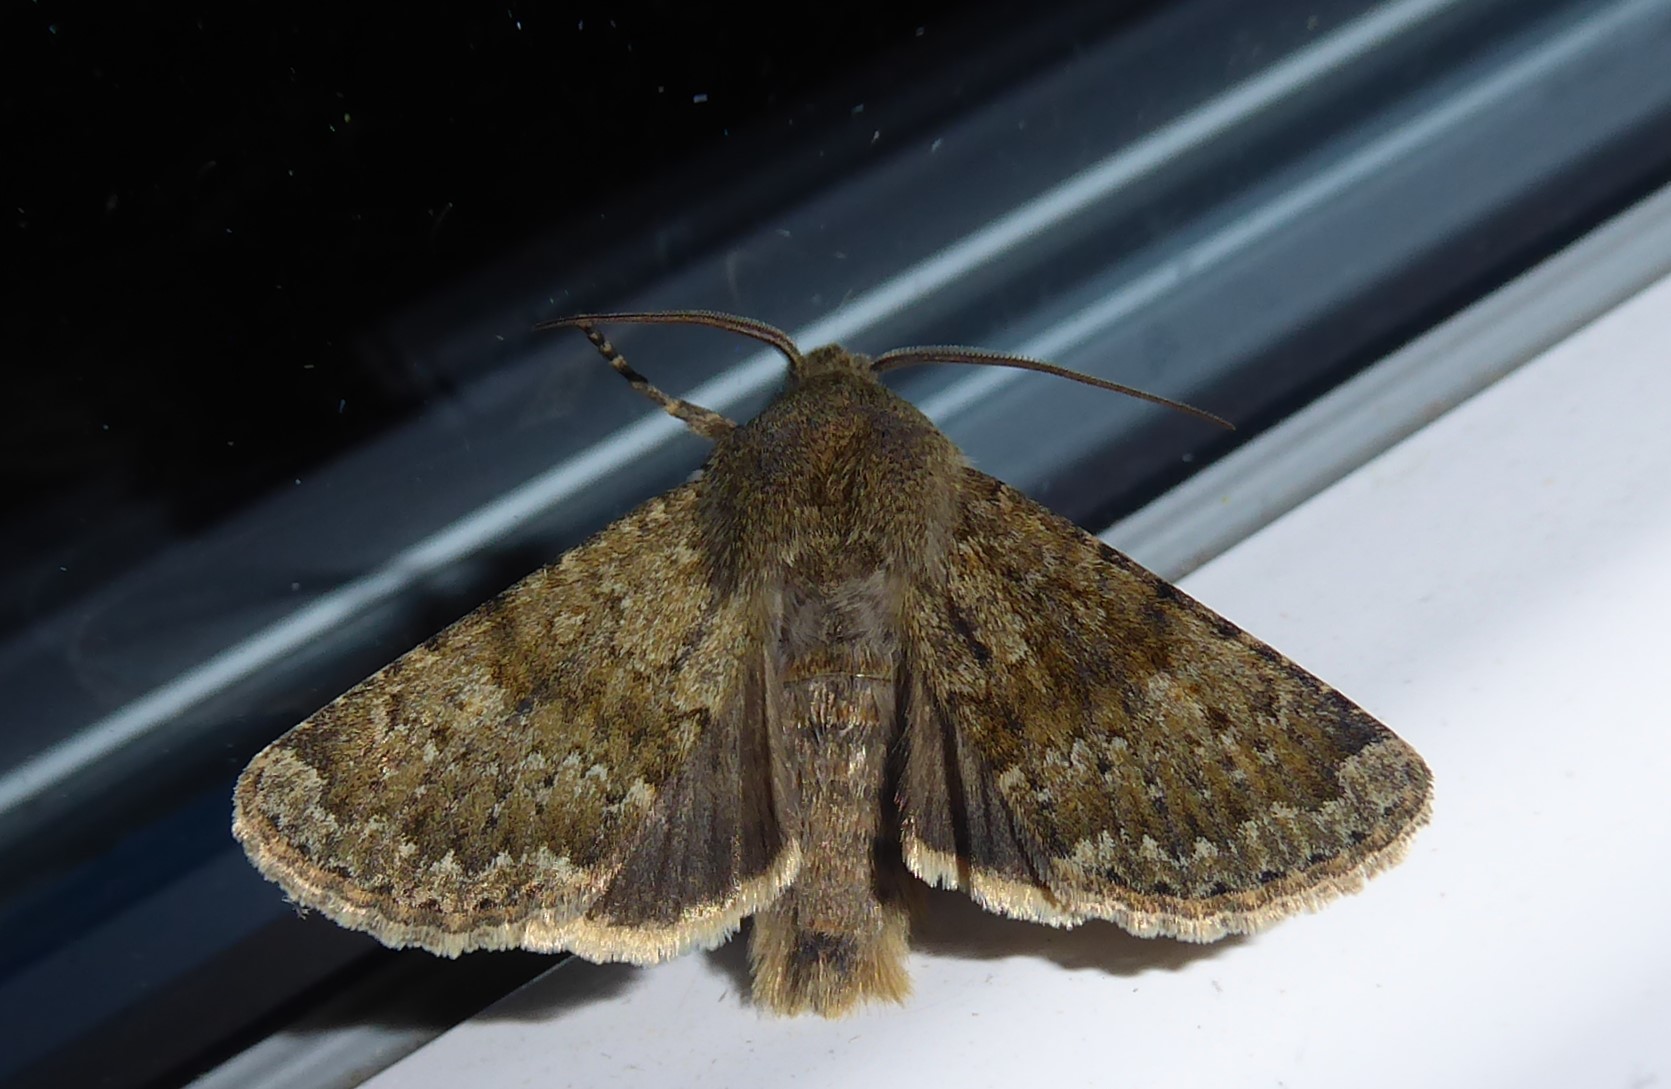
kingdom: Animalia
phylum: Arthropoda
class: Insecta
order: Lepidoptera
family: Noctuidae
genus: Ichneutica
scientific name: Ichneutica moderata
